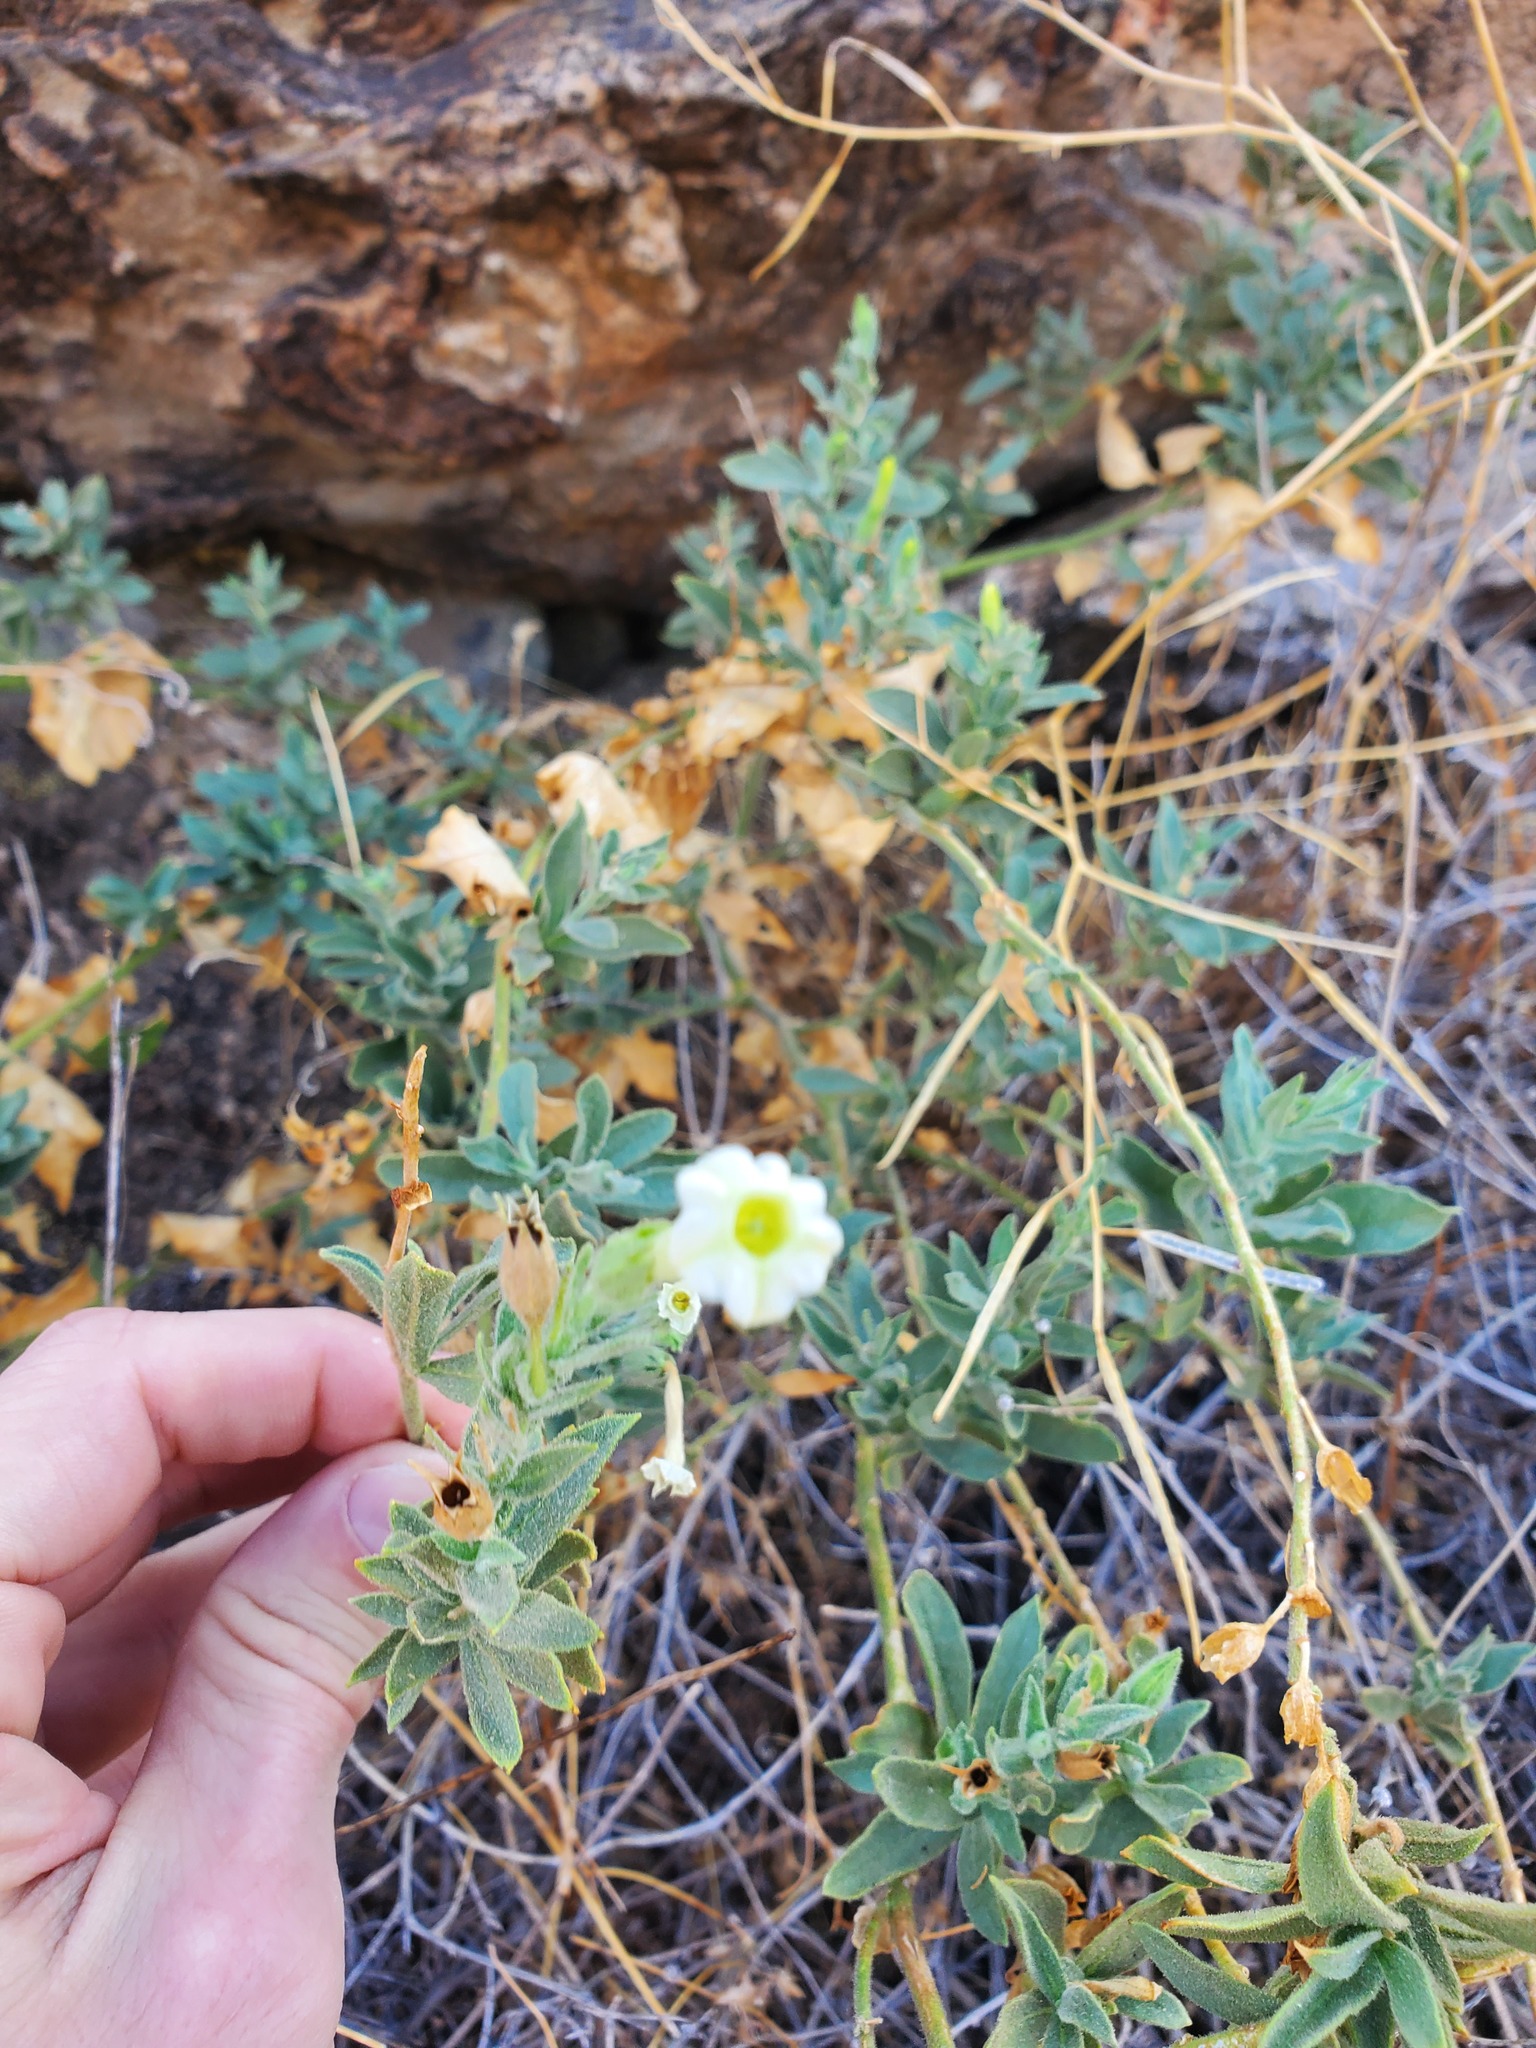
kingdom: Plantae
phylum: Tracheophyta
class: Magnoliopsida
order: Solanales
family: Solanaceae
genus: Nicotiana
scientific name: Nicotiana obtusifolia
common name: Desert tobacco
